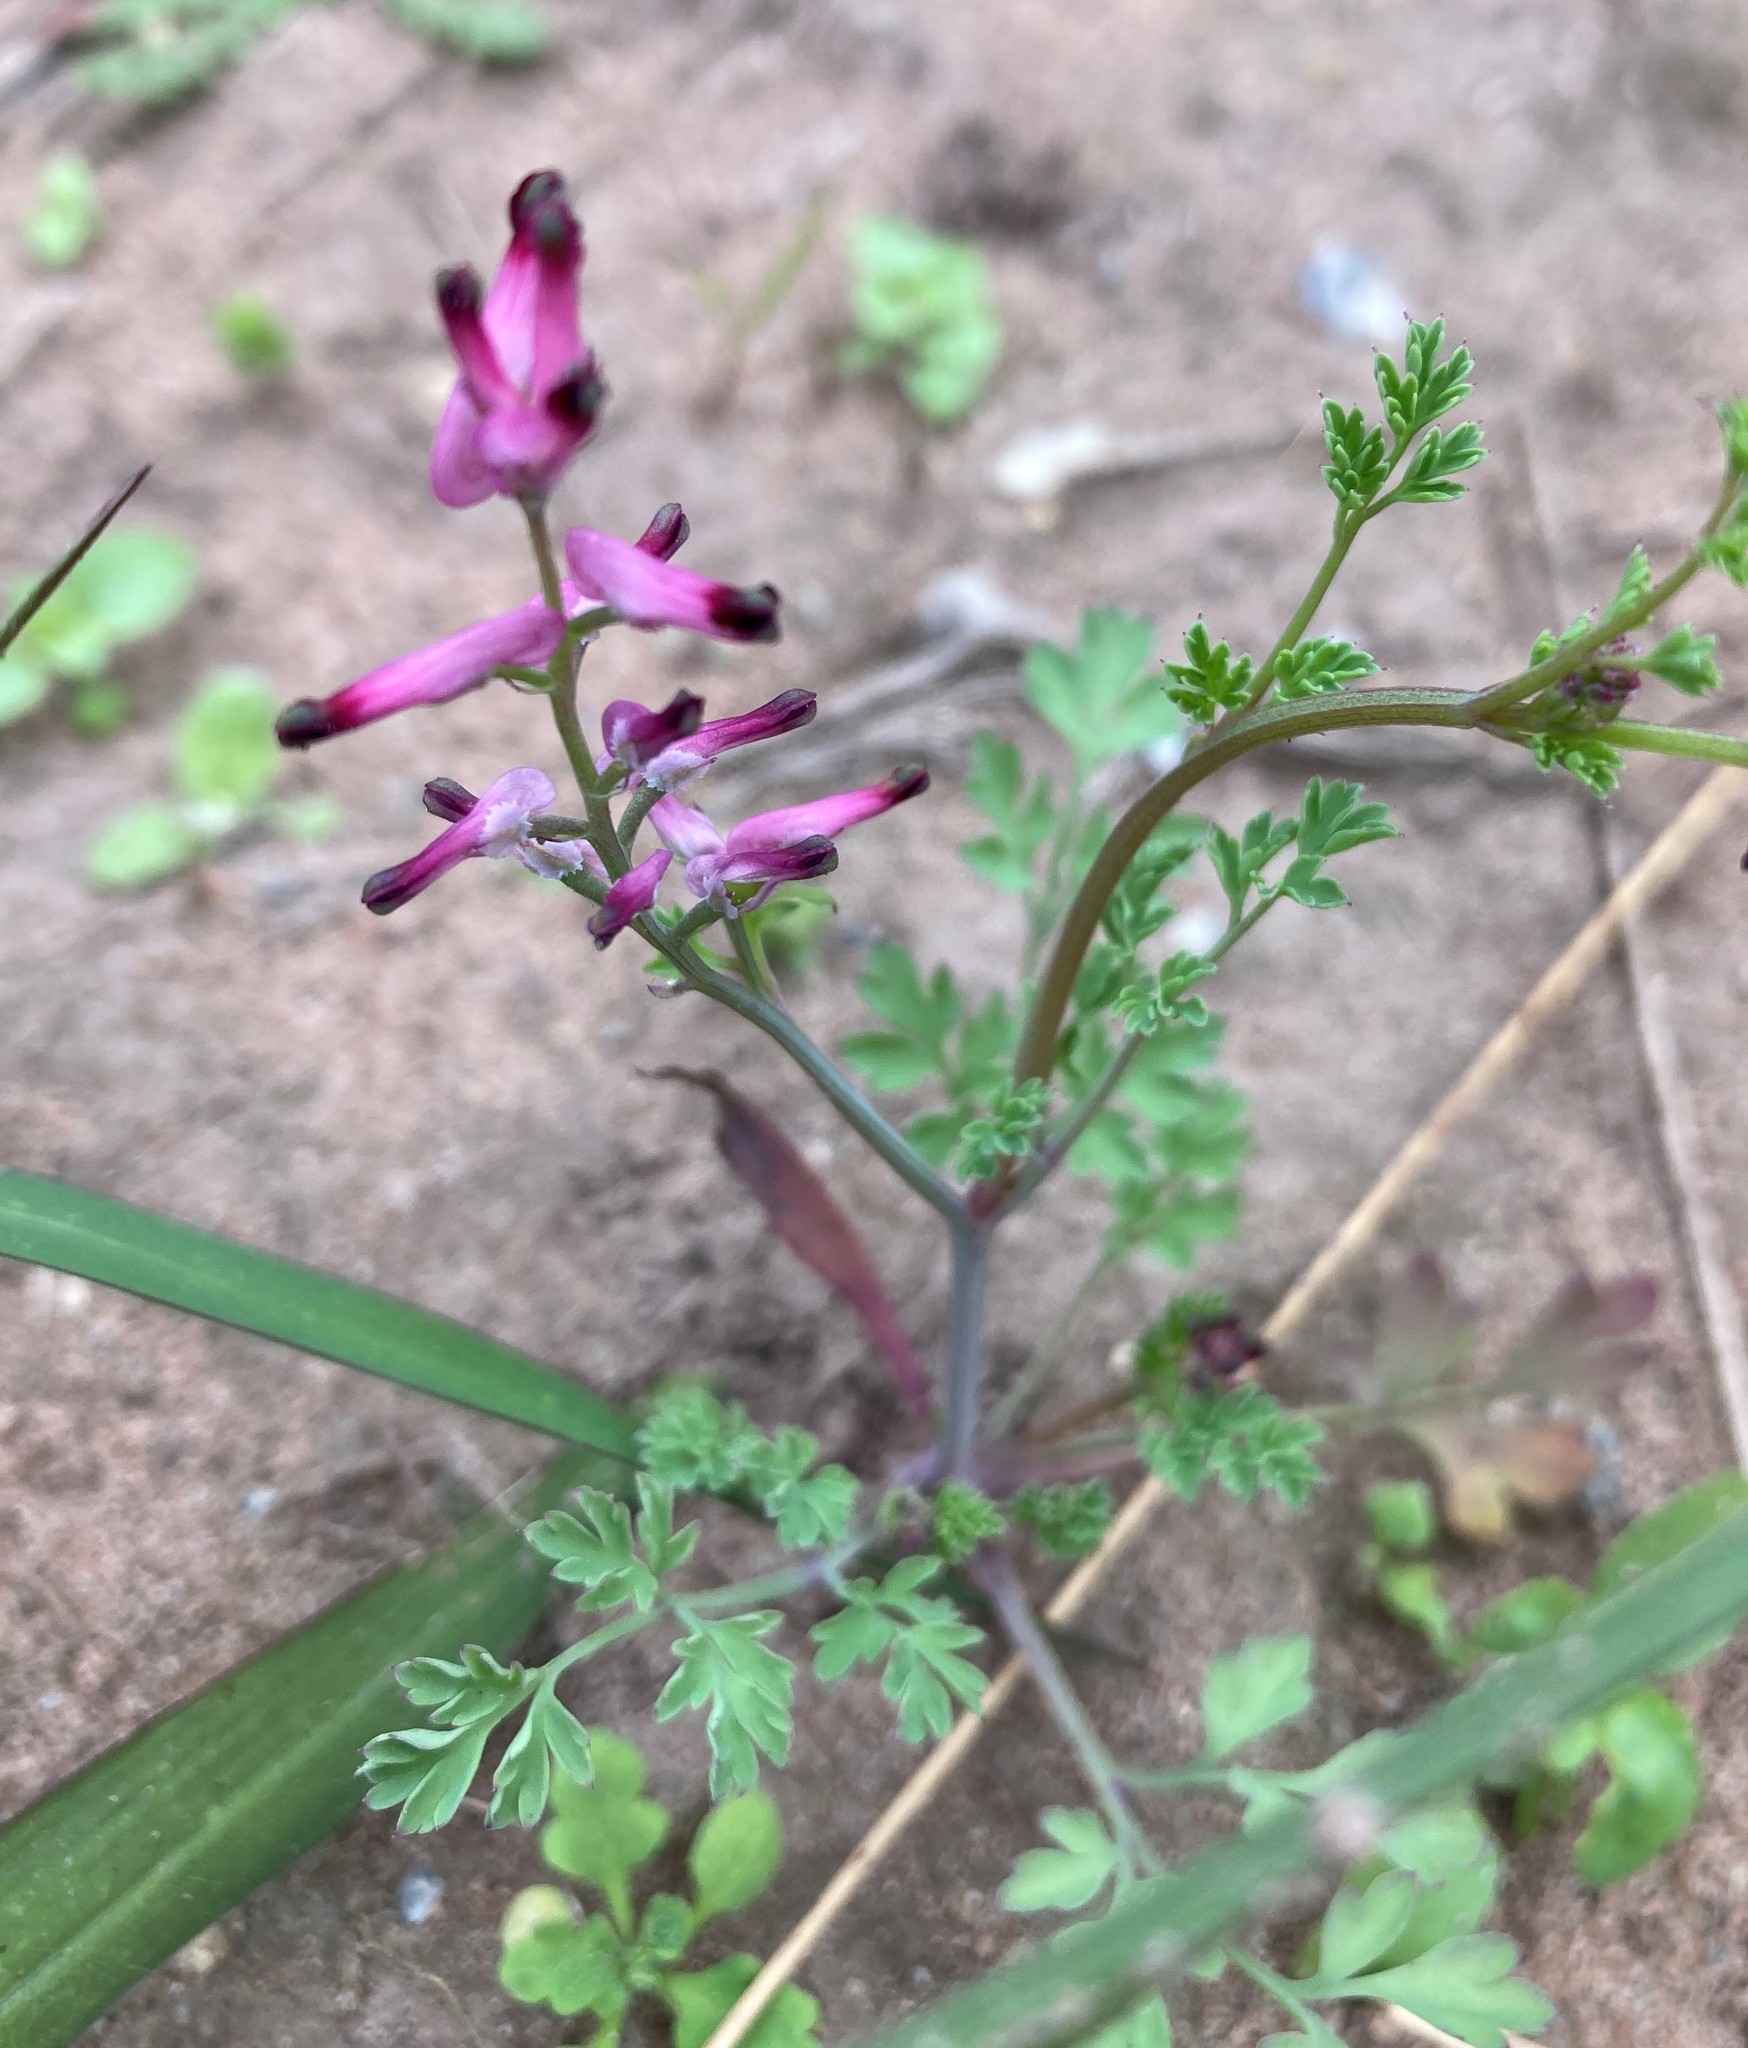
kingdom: Plantae
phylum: Tracheophyta
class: Magnoliopsida
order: Ranunculales
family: Papaveraceae
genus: Fumaria
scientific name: Fumaria muralis
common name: Common ramping-fumitory
